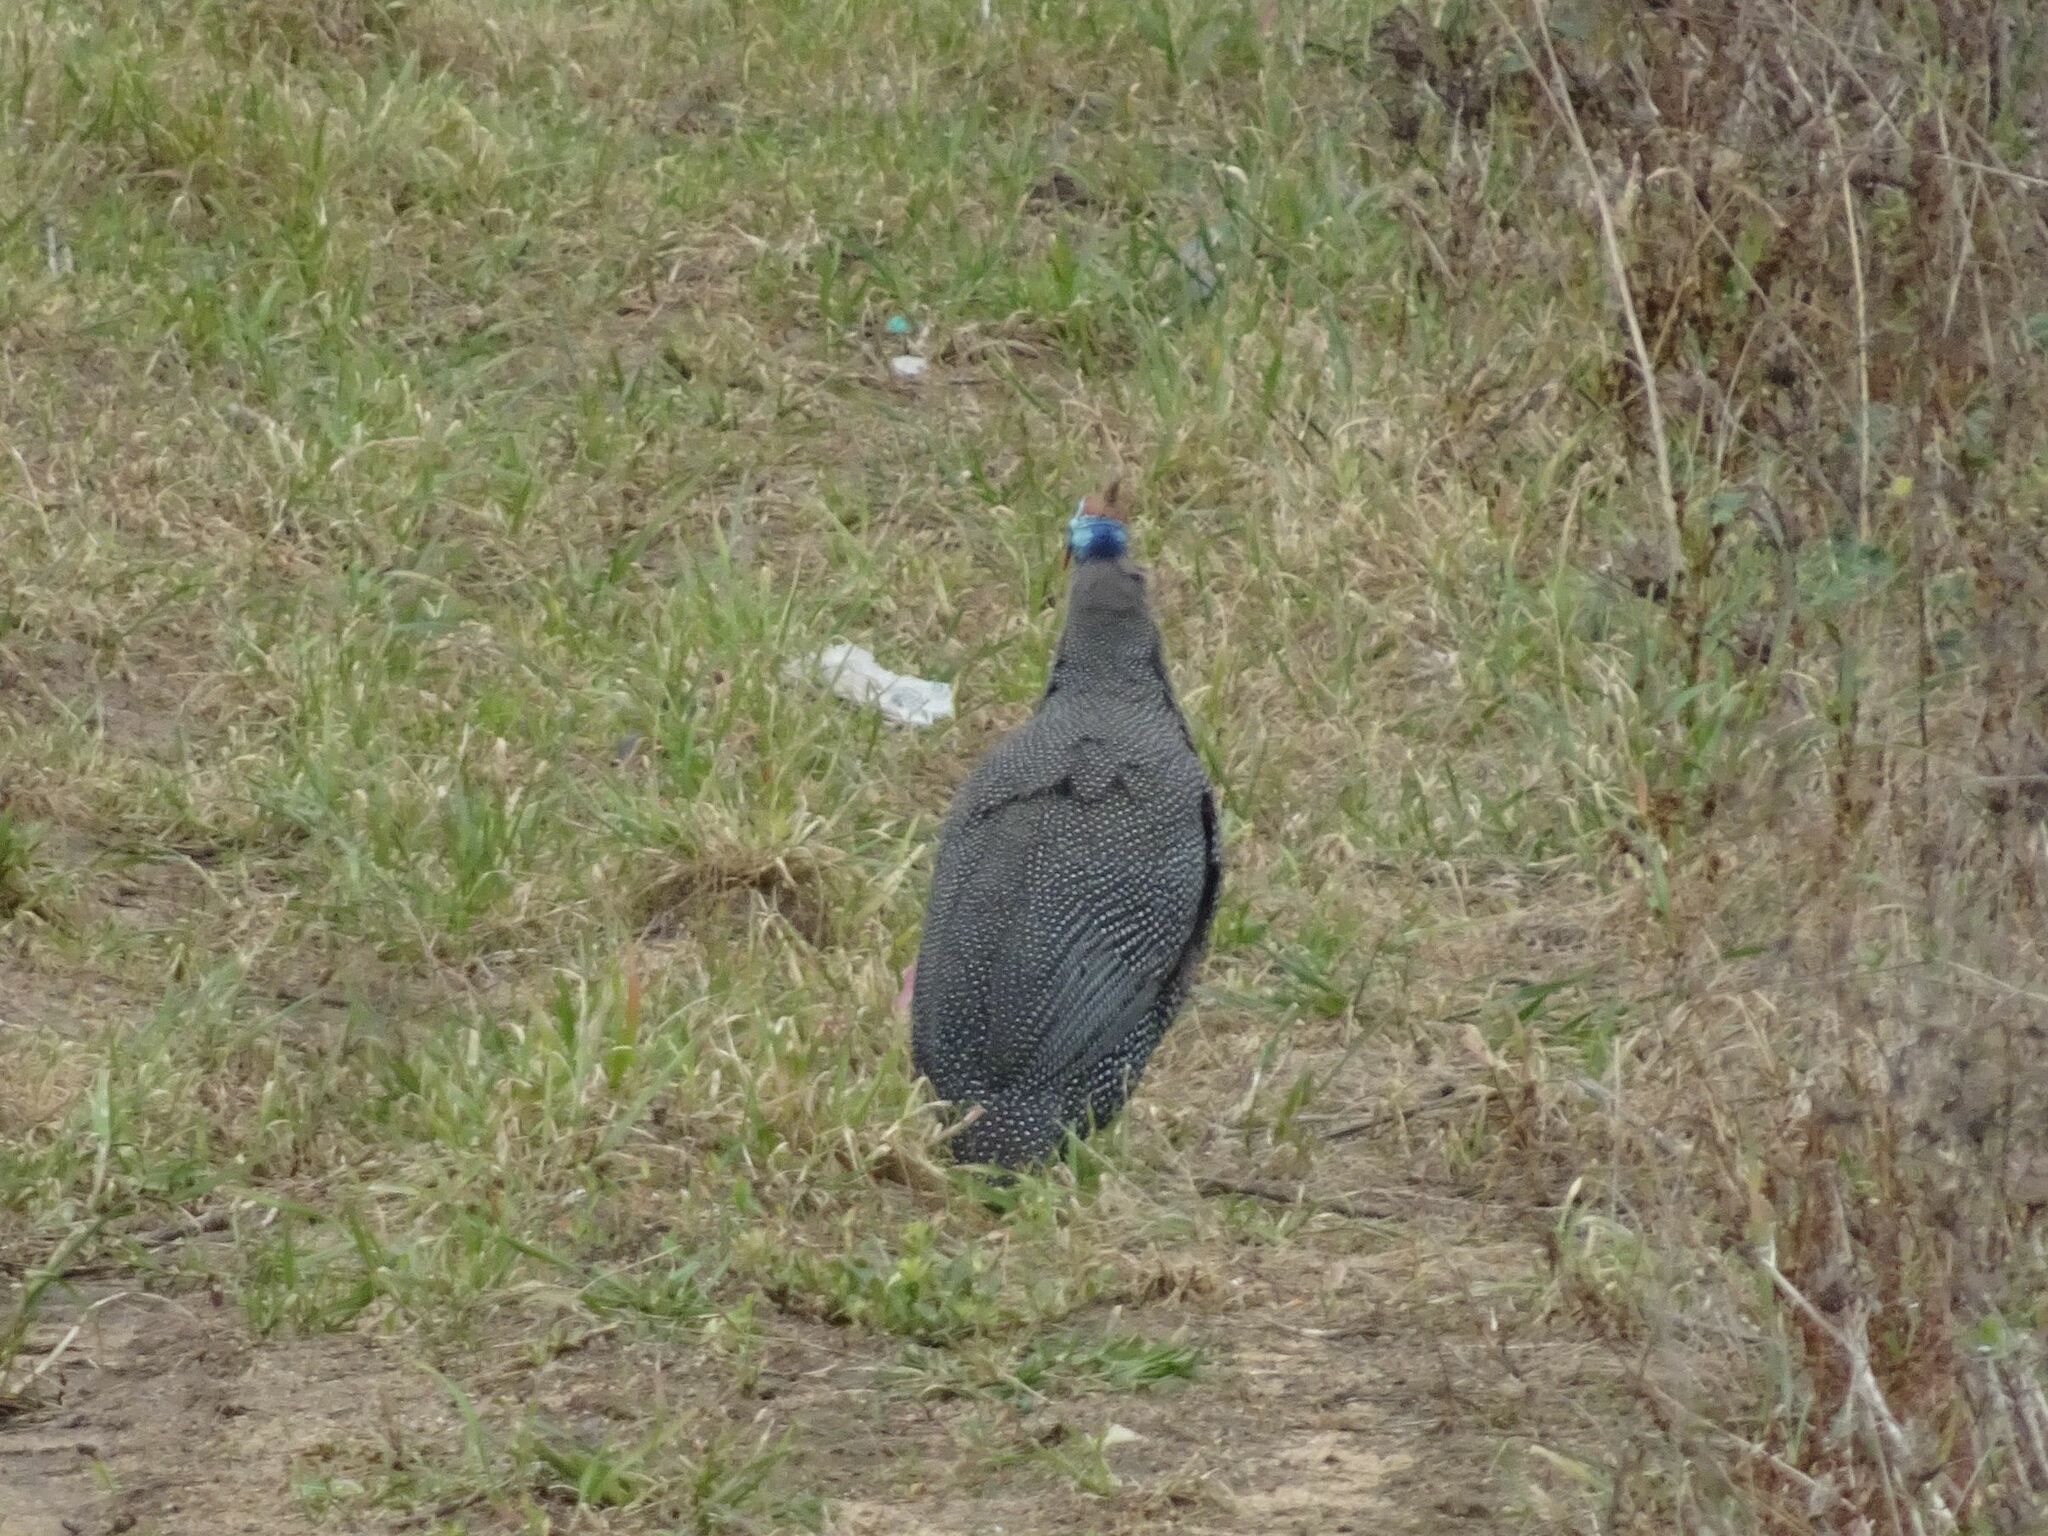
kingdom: Animalia
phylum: Chordata
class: Aves
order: Galliformes
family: Numididae
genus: Numida
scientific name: Numida meleagris
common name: Helmeted guineafowl
